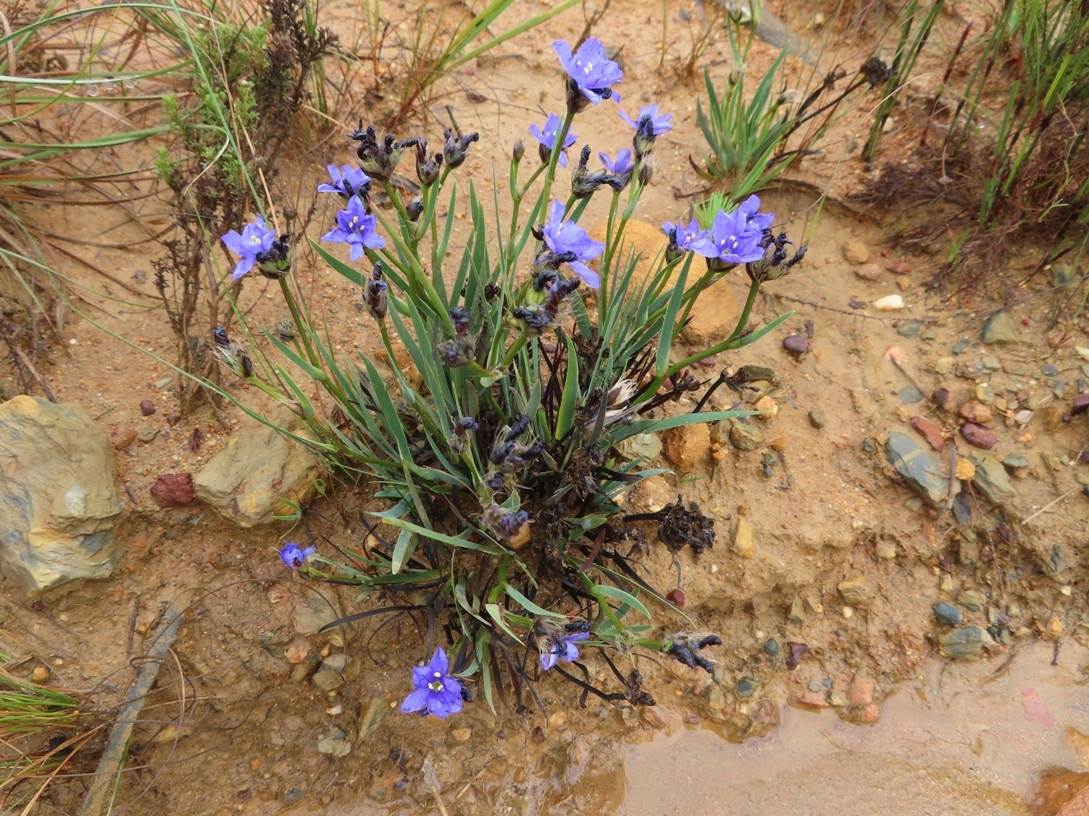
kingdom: Plantae
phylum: Tracheophyta
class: Liliopsida
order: Asparagales
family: Iridaceae
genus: Aristea
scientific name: Aristea africana
